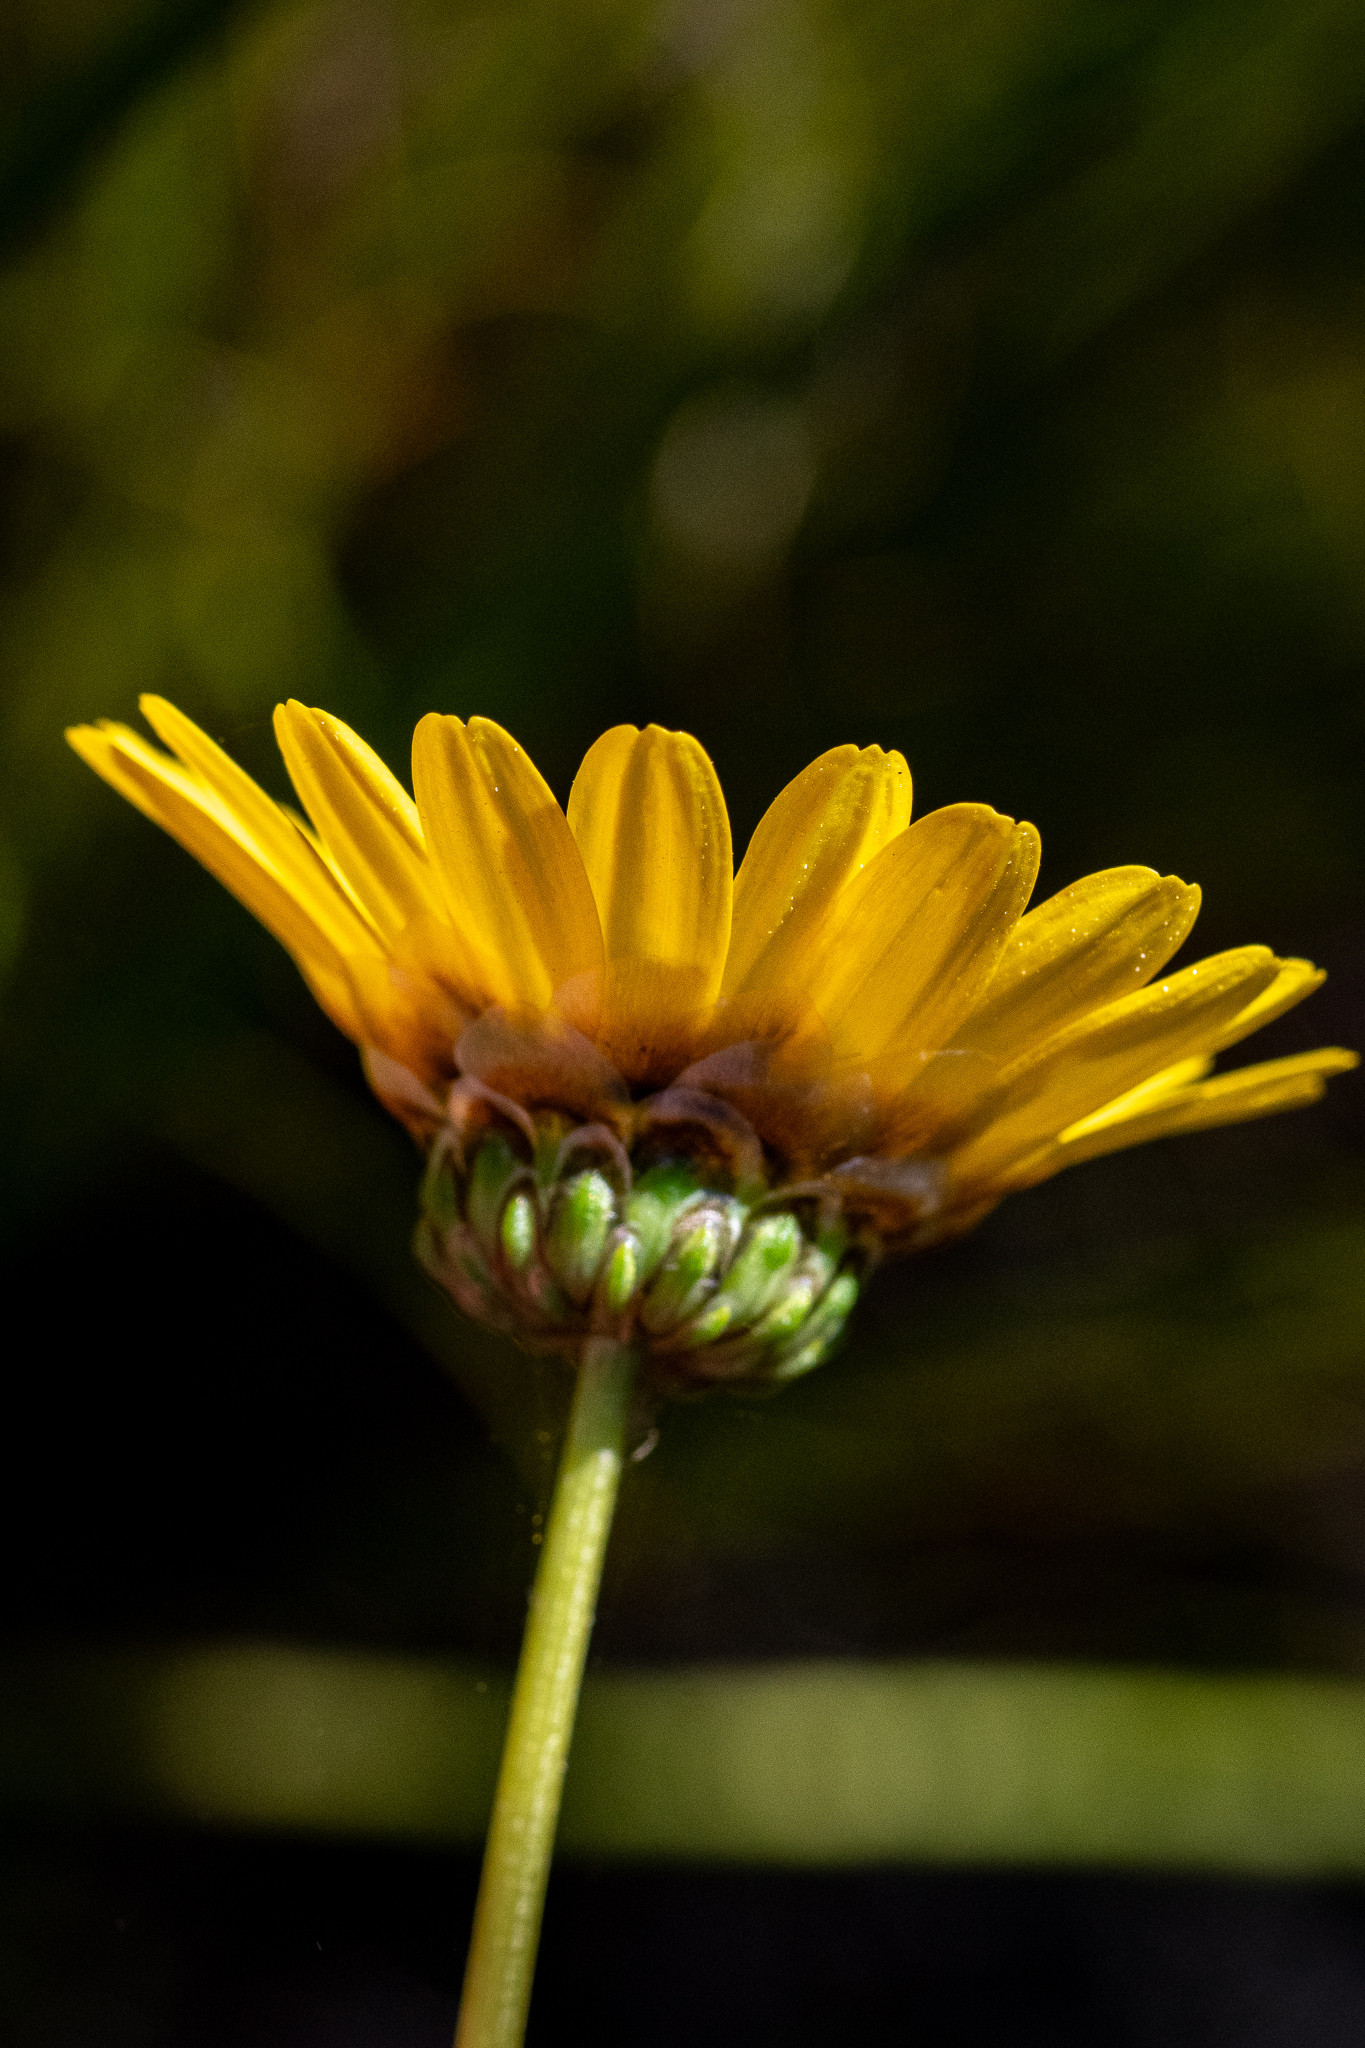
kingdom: Plantae
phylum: Tracheophyta
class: Magnoliopsida
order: Asterales
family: Asteraceae
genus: Ursinia
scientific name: Ursinia paleacea
